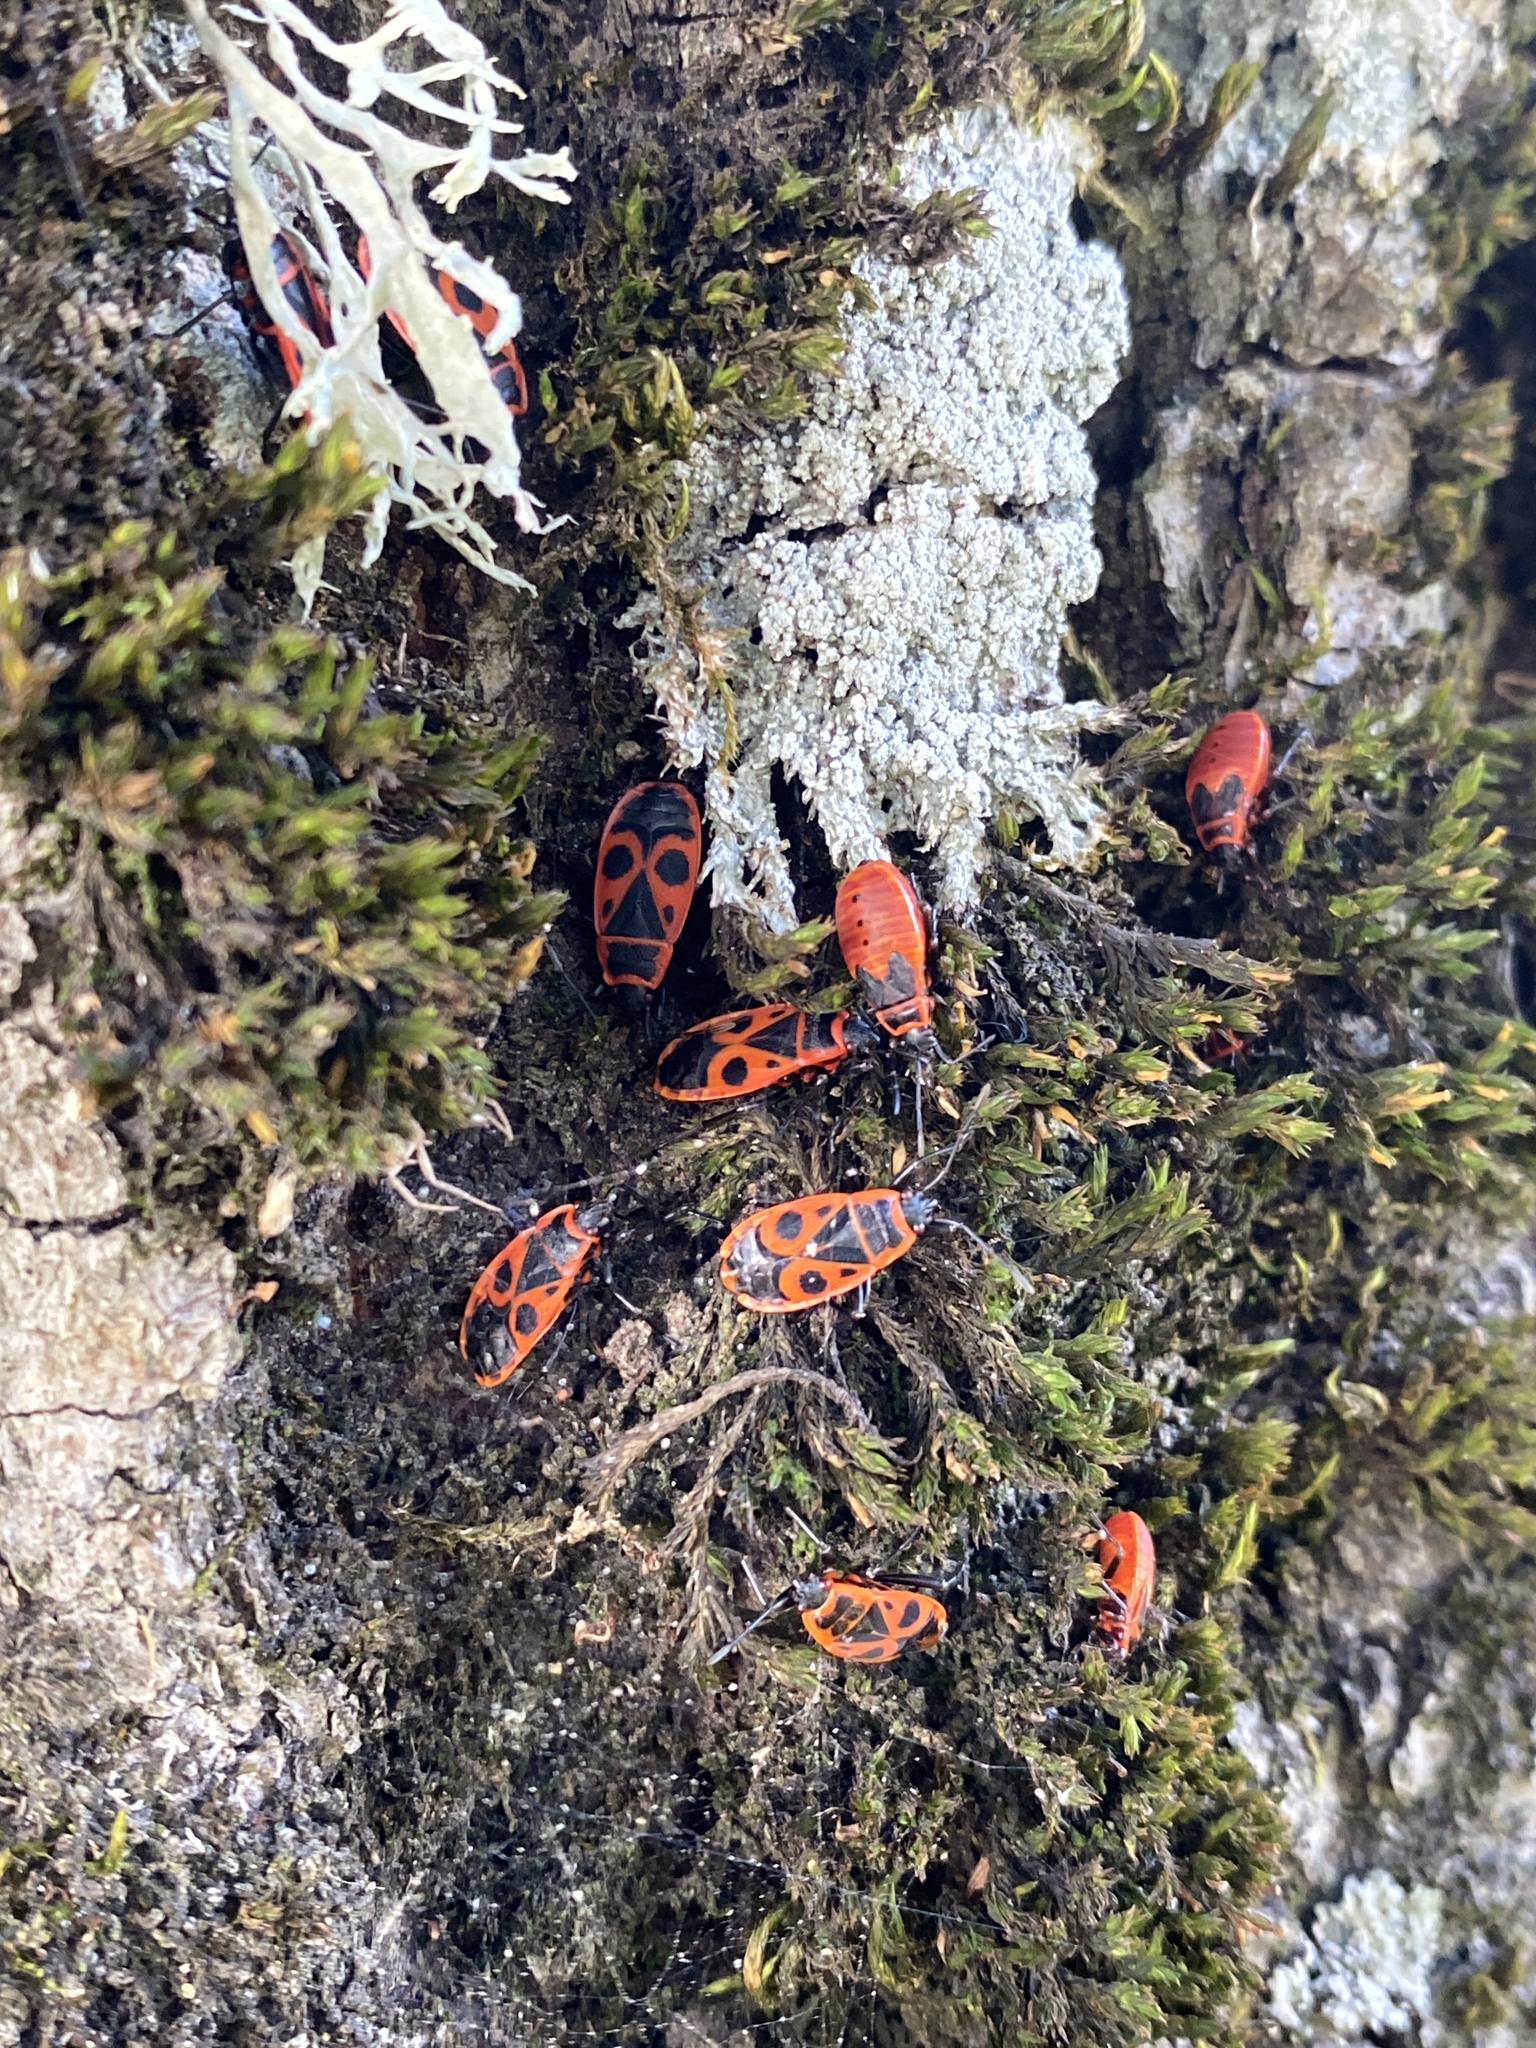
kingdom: Animalia
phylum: Arthropoda
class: Insecta
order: Hemiptera
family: Pyrrhocoridae
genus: Pyrrhocoris
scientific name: Pyrrhocoris apterus
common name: Firebug
